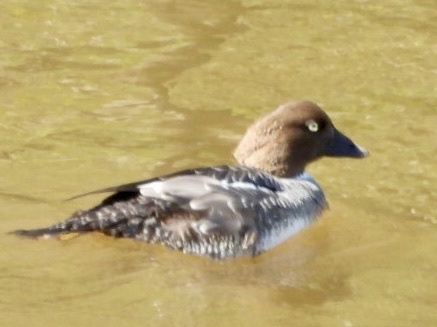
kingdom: Animalia
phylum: Chordata
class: Aves
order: Anseriformes
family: Anatidae
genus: Bucephala
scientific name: Bucephala clangula
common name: Common goldeneye
